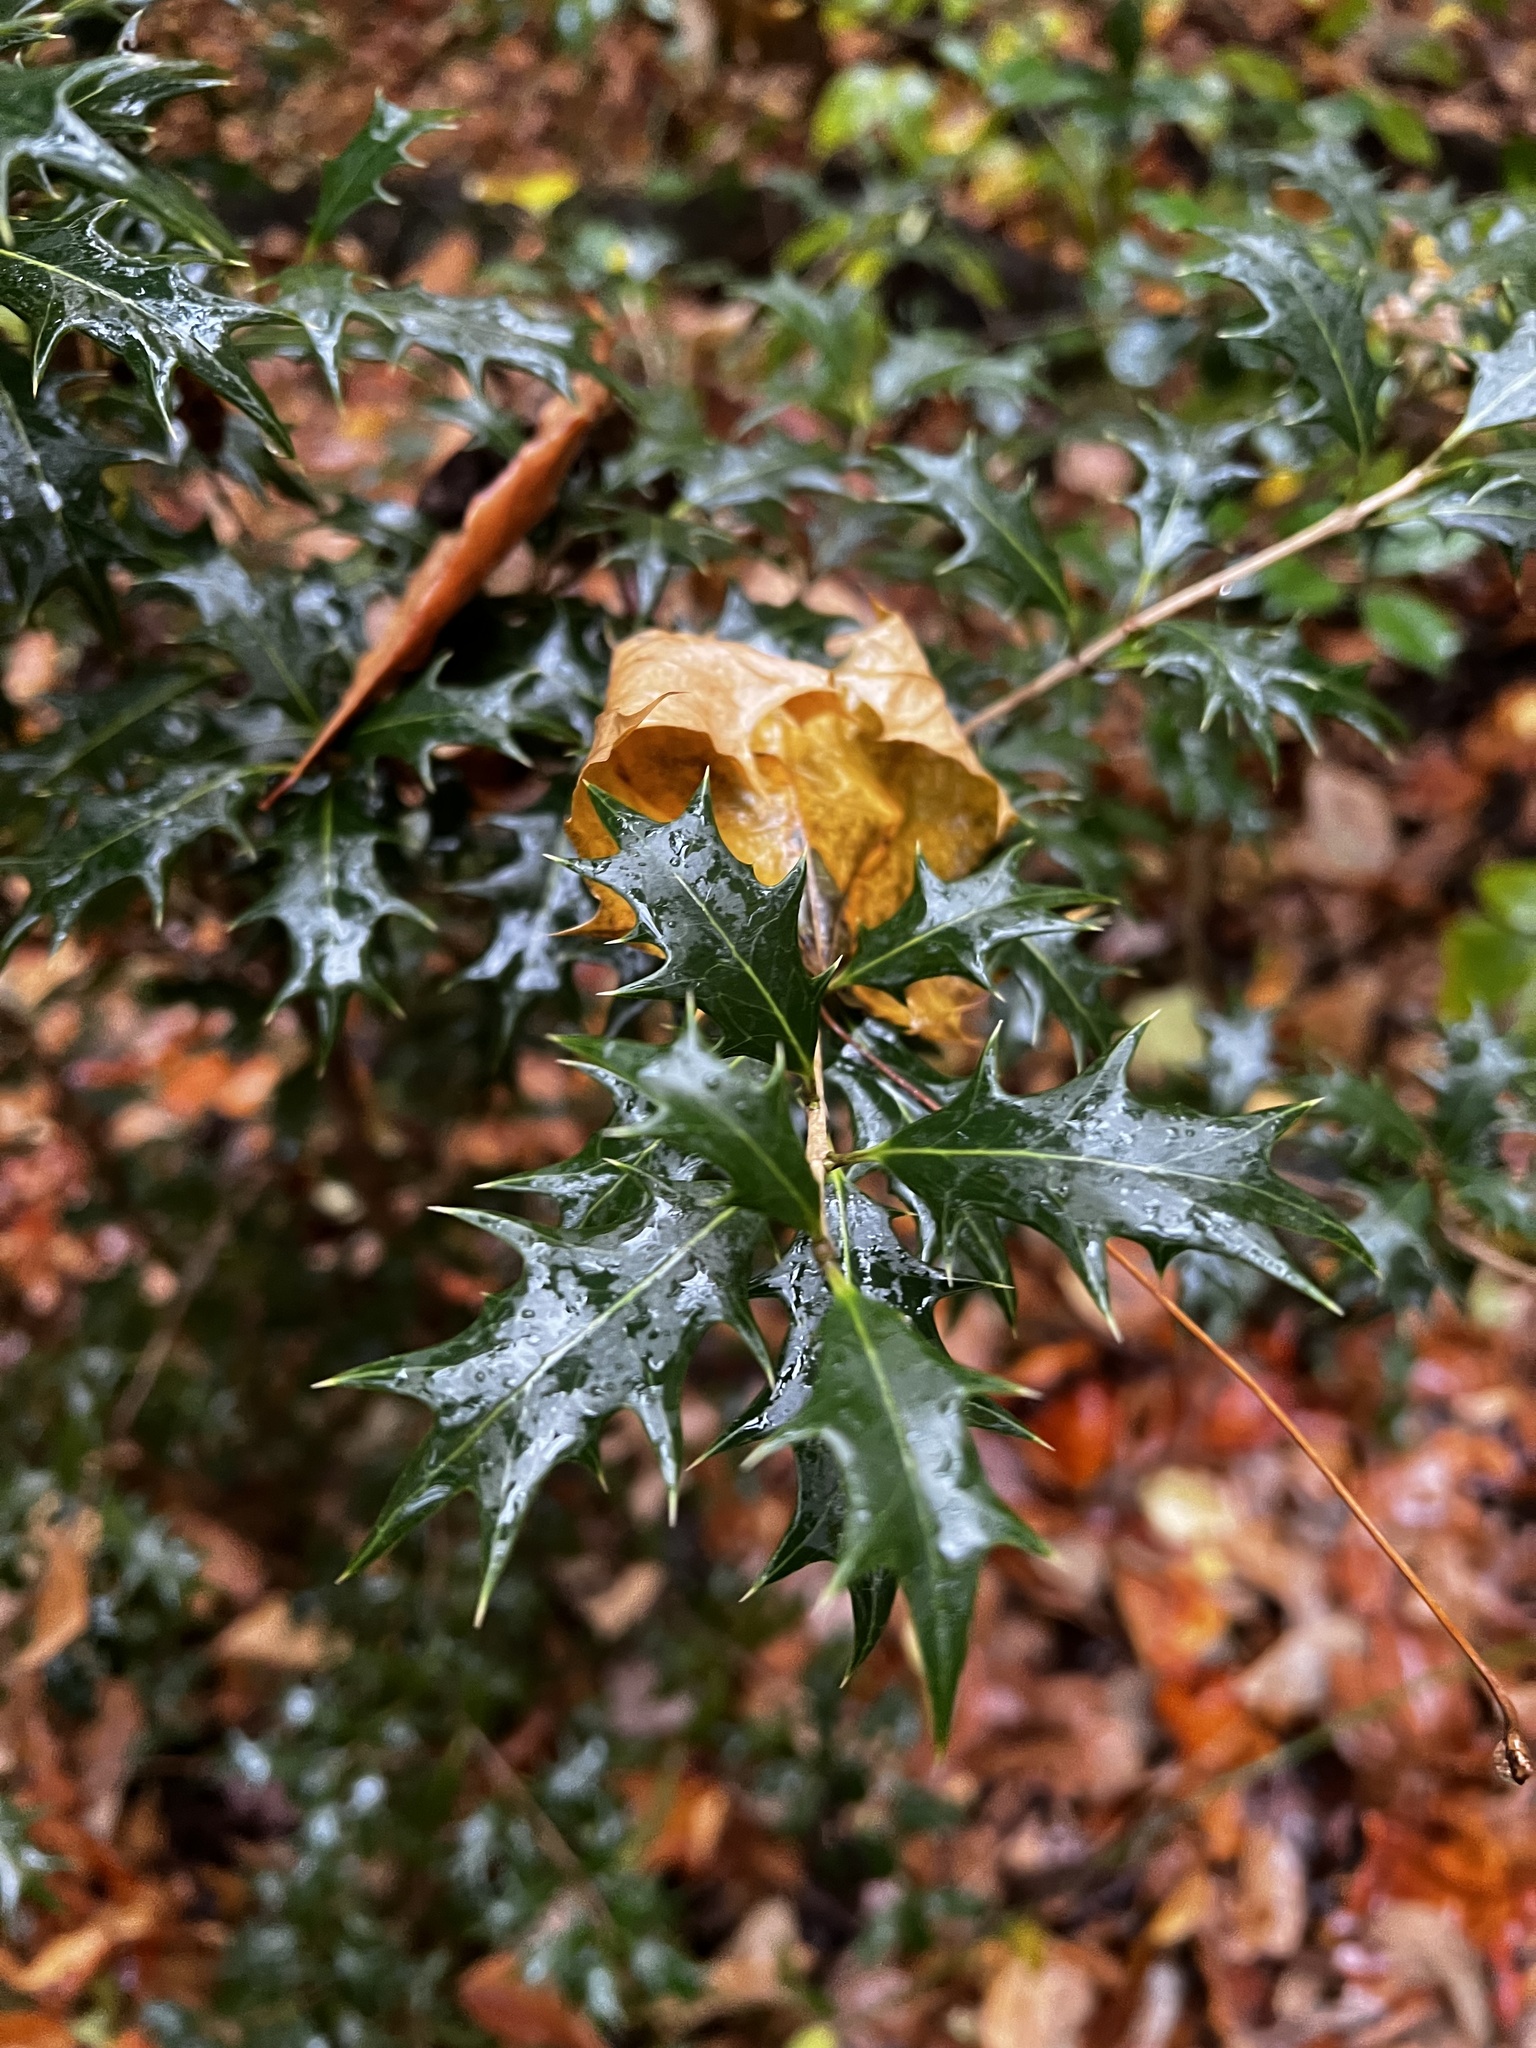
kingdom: Plantae
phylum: Tracheophyta
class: Magnoliopsida
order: Lamiales
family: Oleaceae
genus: Osmanthus
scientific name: Osmanthus heterophyllus
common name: Holly osmanthus
